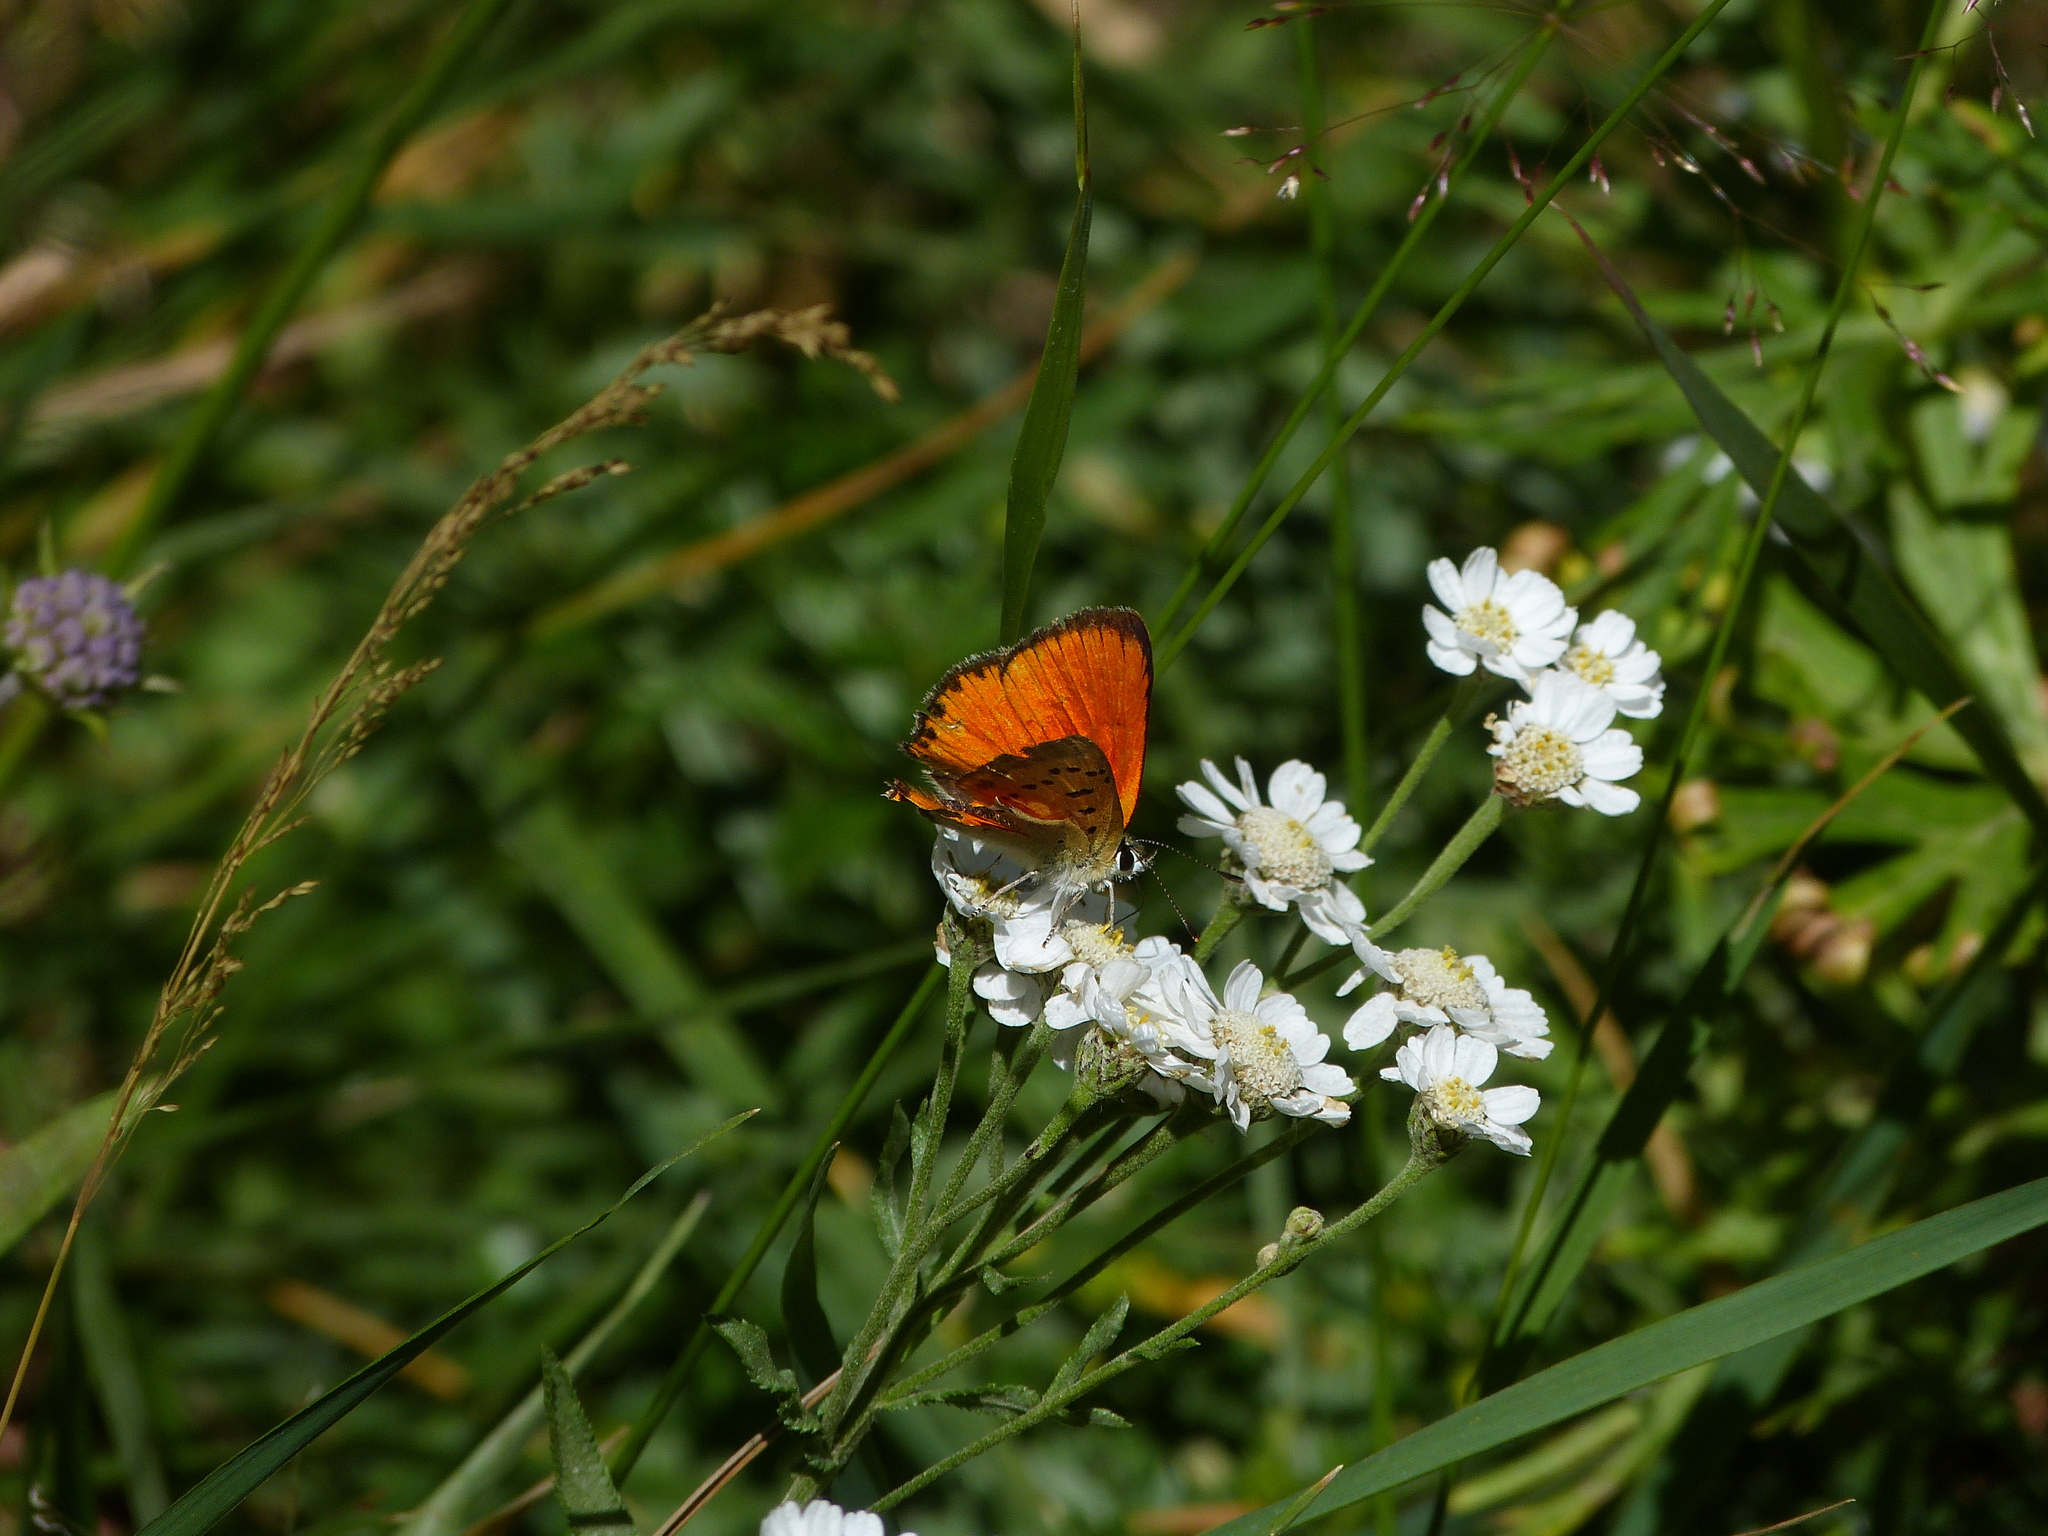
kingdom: Animalia
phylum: Arthropoda
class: Insecta
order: Lepidoptera
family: Lycaenidae
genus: Lycaena
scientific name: Lycaena virgaureae
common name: Scarce copper
